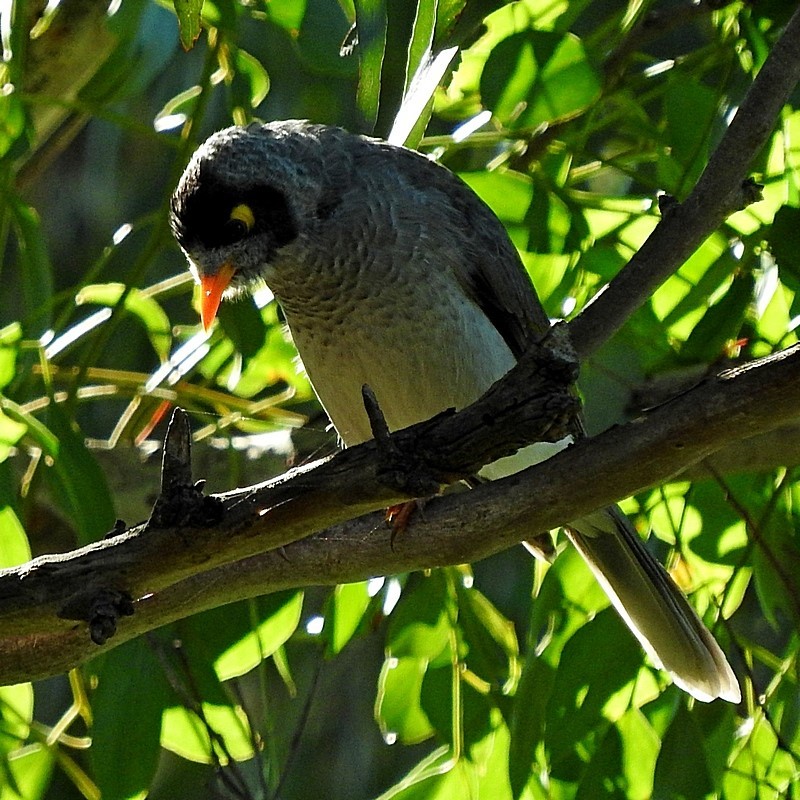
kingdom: Animalia
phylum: Chordata
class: Aves
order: Passeriformes
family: Meliphagidae
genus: Manorina
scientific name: Manorina melanocephala
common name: Noisy miner
